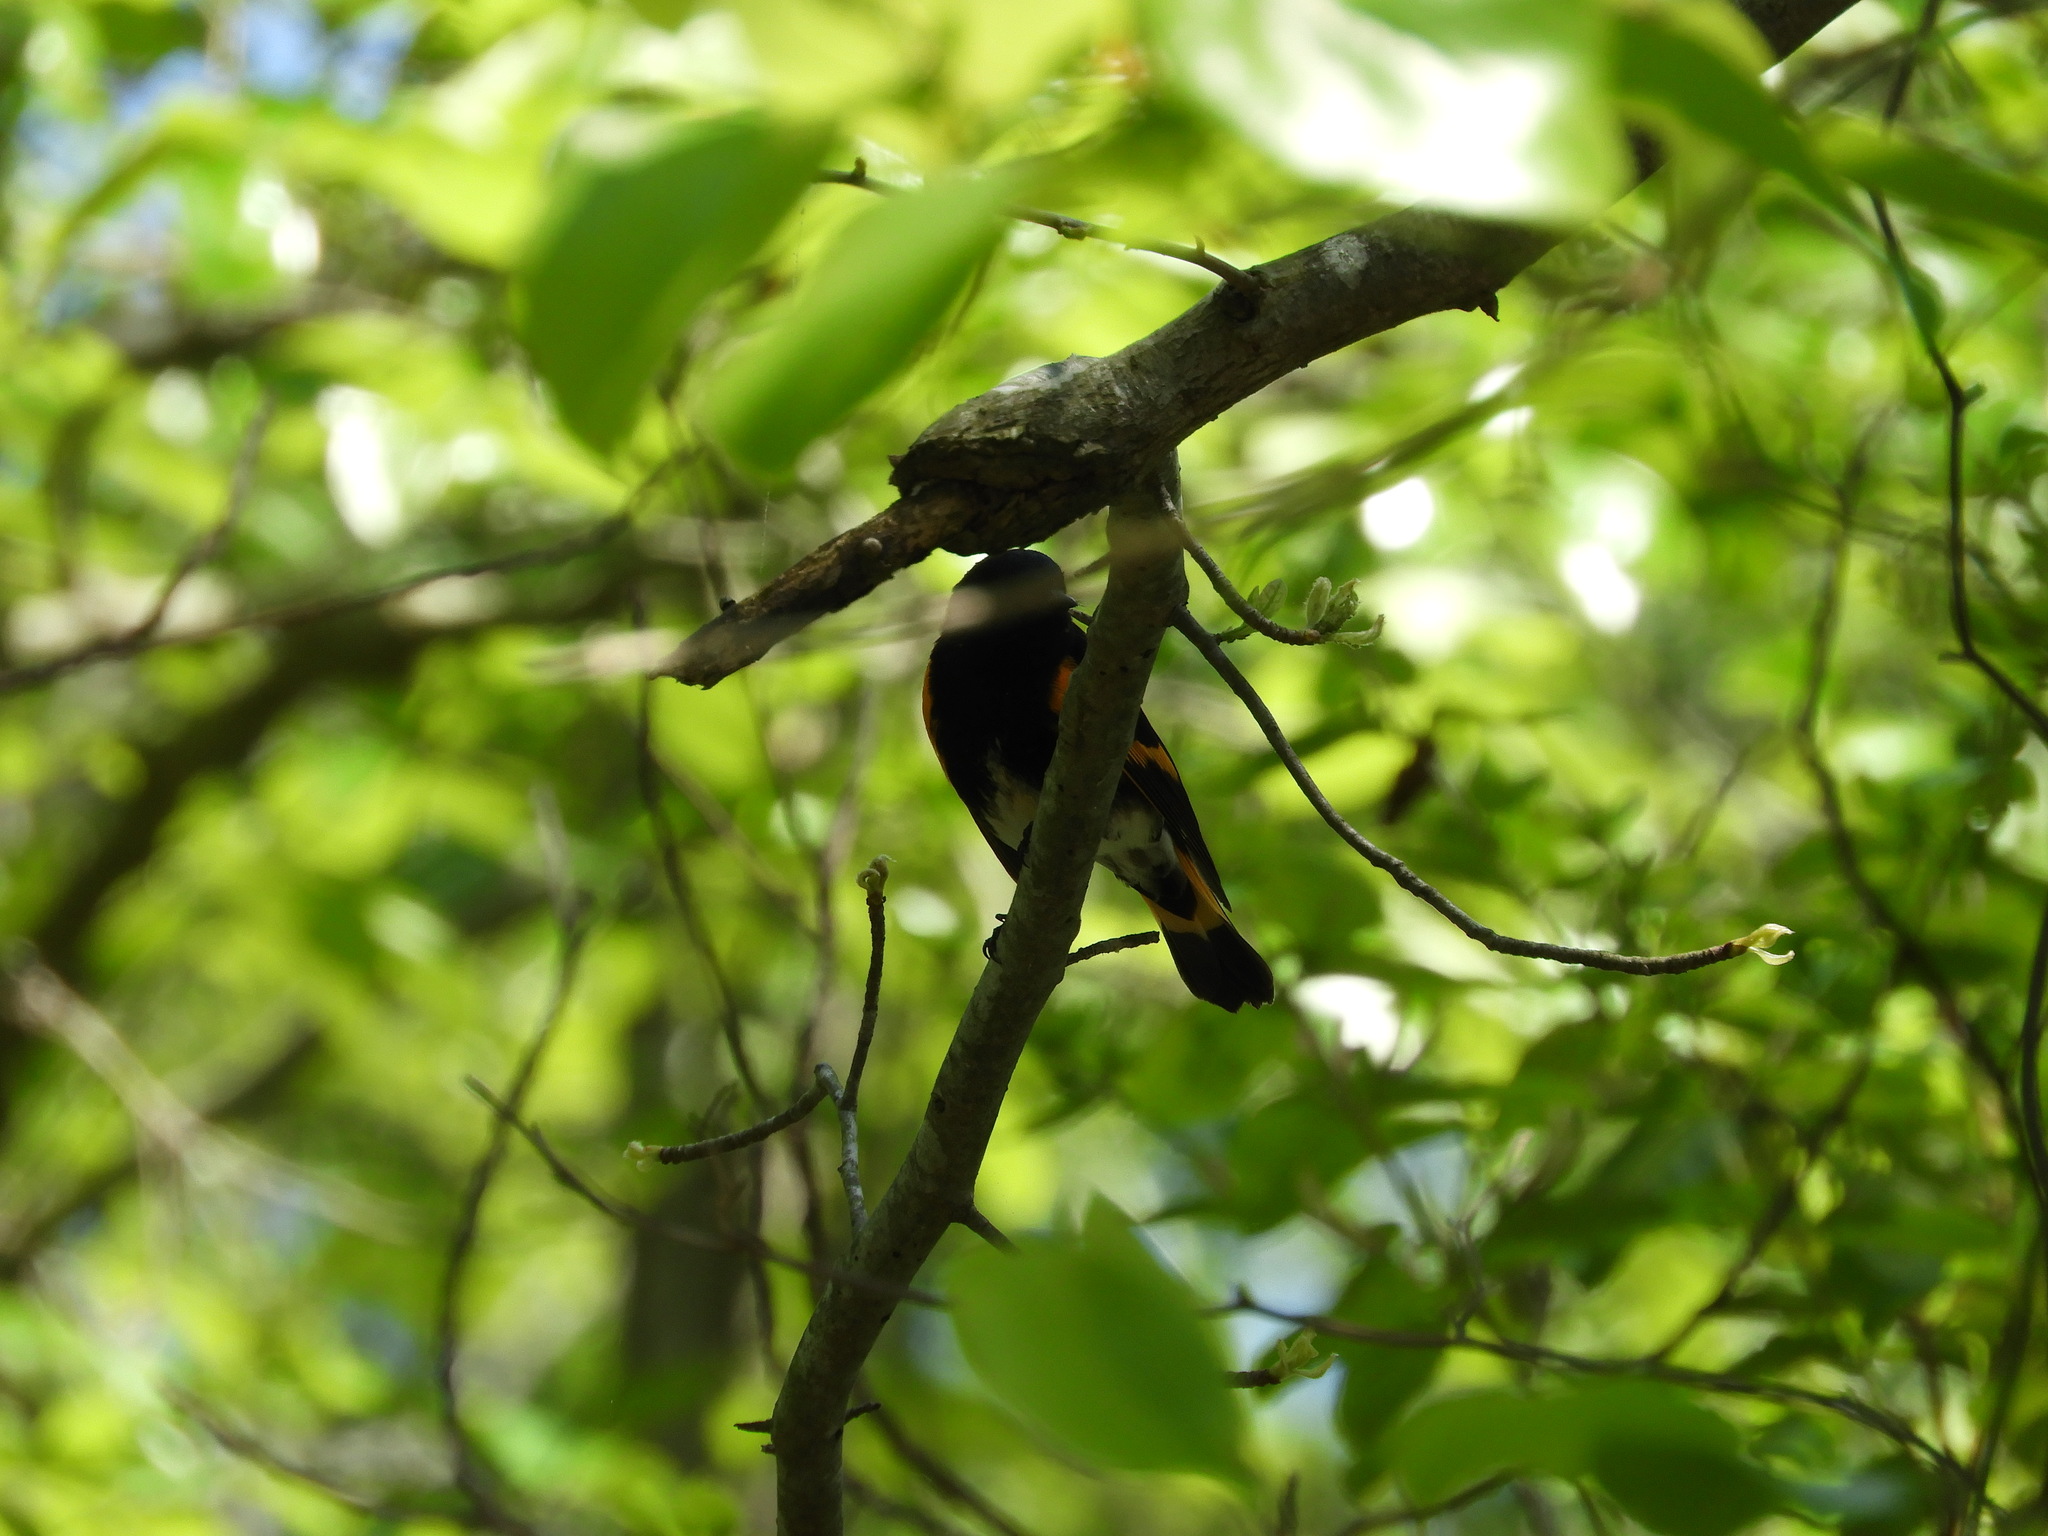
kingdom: Animalia
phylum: Chordata
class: Aves
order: Passeriformes
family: Parulidae
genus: Setophaga
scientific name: Setophaga ruticilla
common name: American redstart
